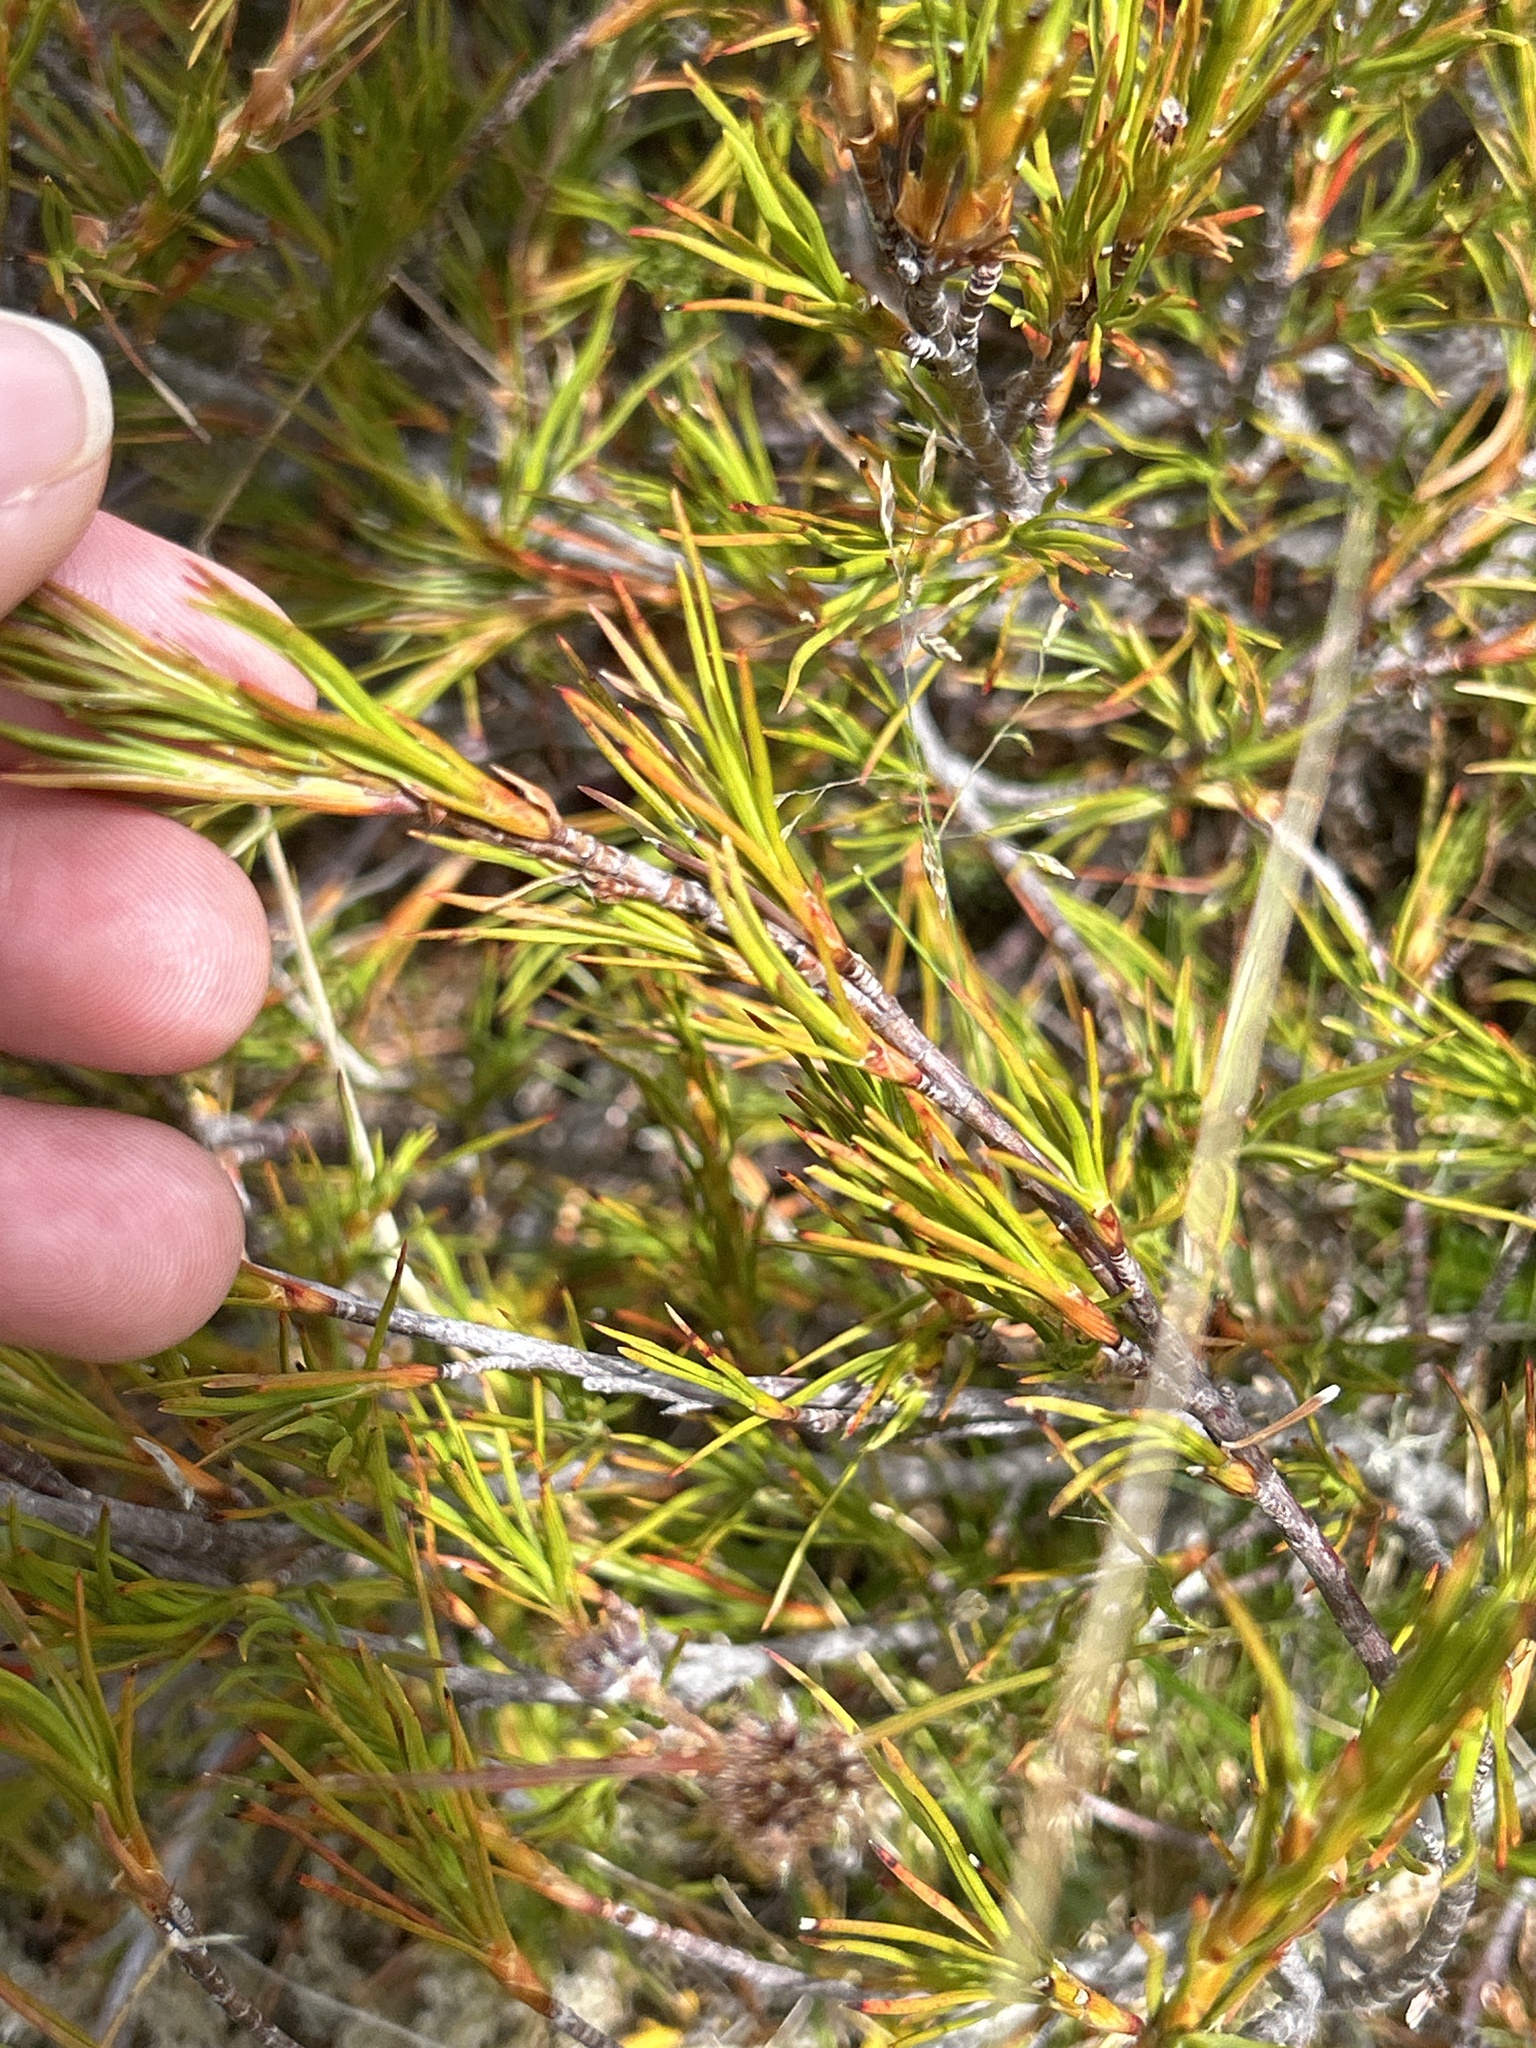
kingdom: Plantae
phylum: Tracheophyta
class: Magnoliopsida
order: Ericales
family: Ericaceae
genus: Dracophyllum
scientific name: Dracophyllum rosmarinifolium
